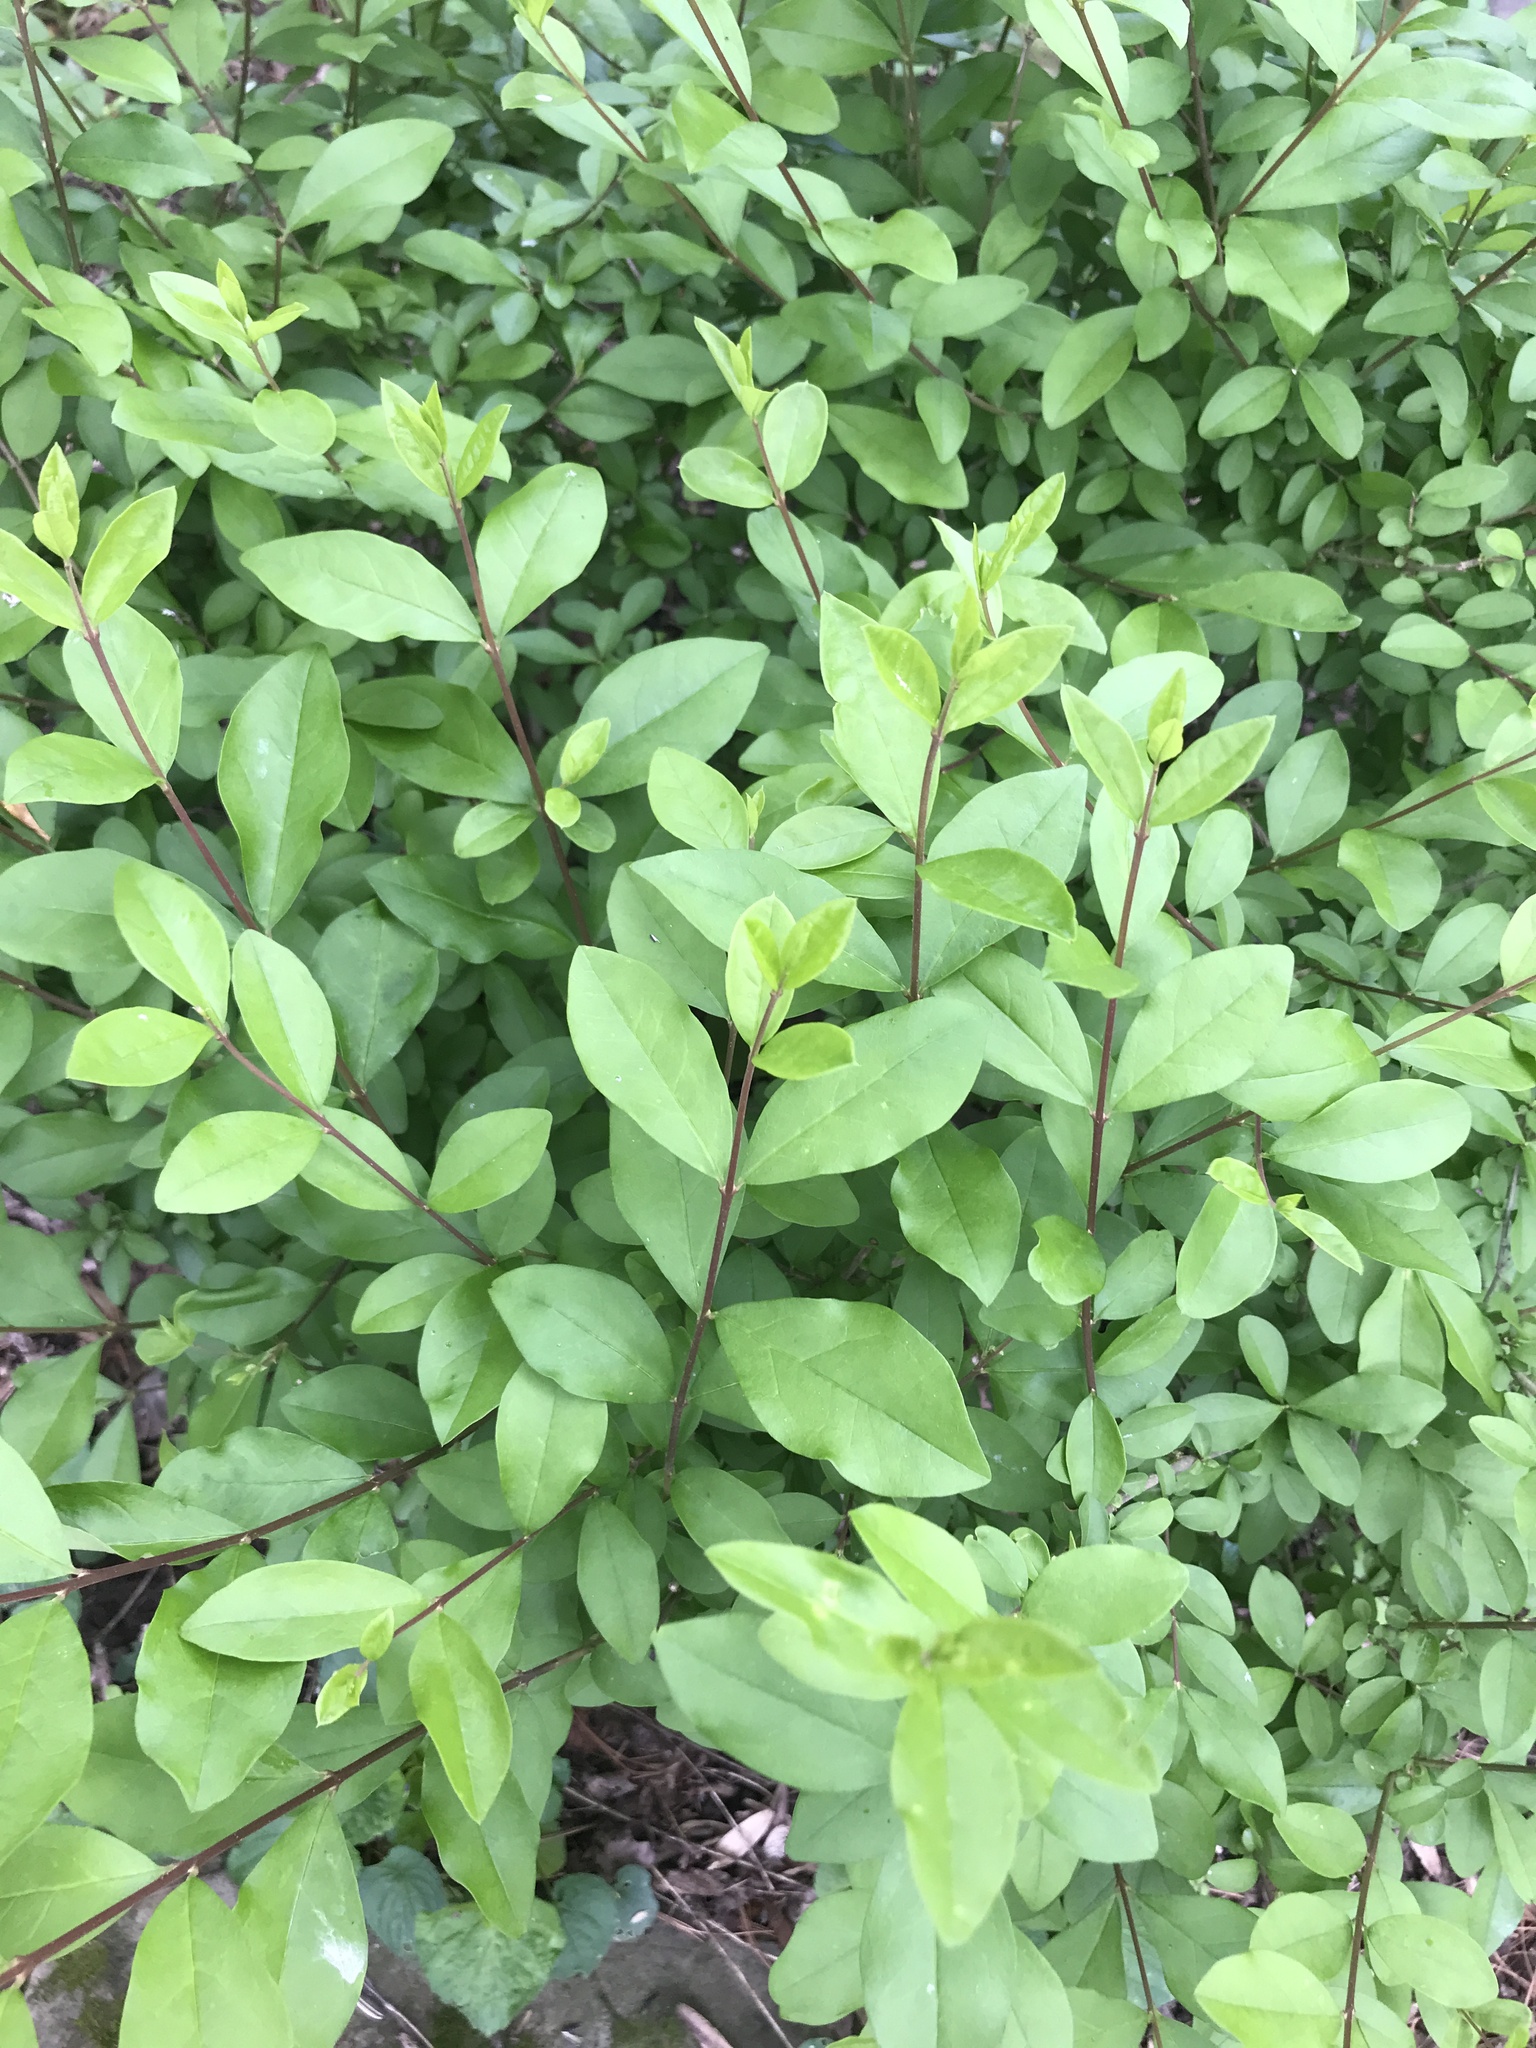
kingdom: Plantae
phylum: Tracheophyta
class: Magnoliopsida
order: Lamiales
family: Oleaceae
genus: Ligustrum
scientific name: Ligustrum obtusifolium
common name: Border privet
